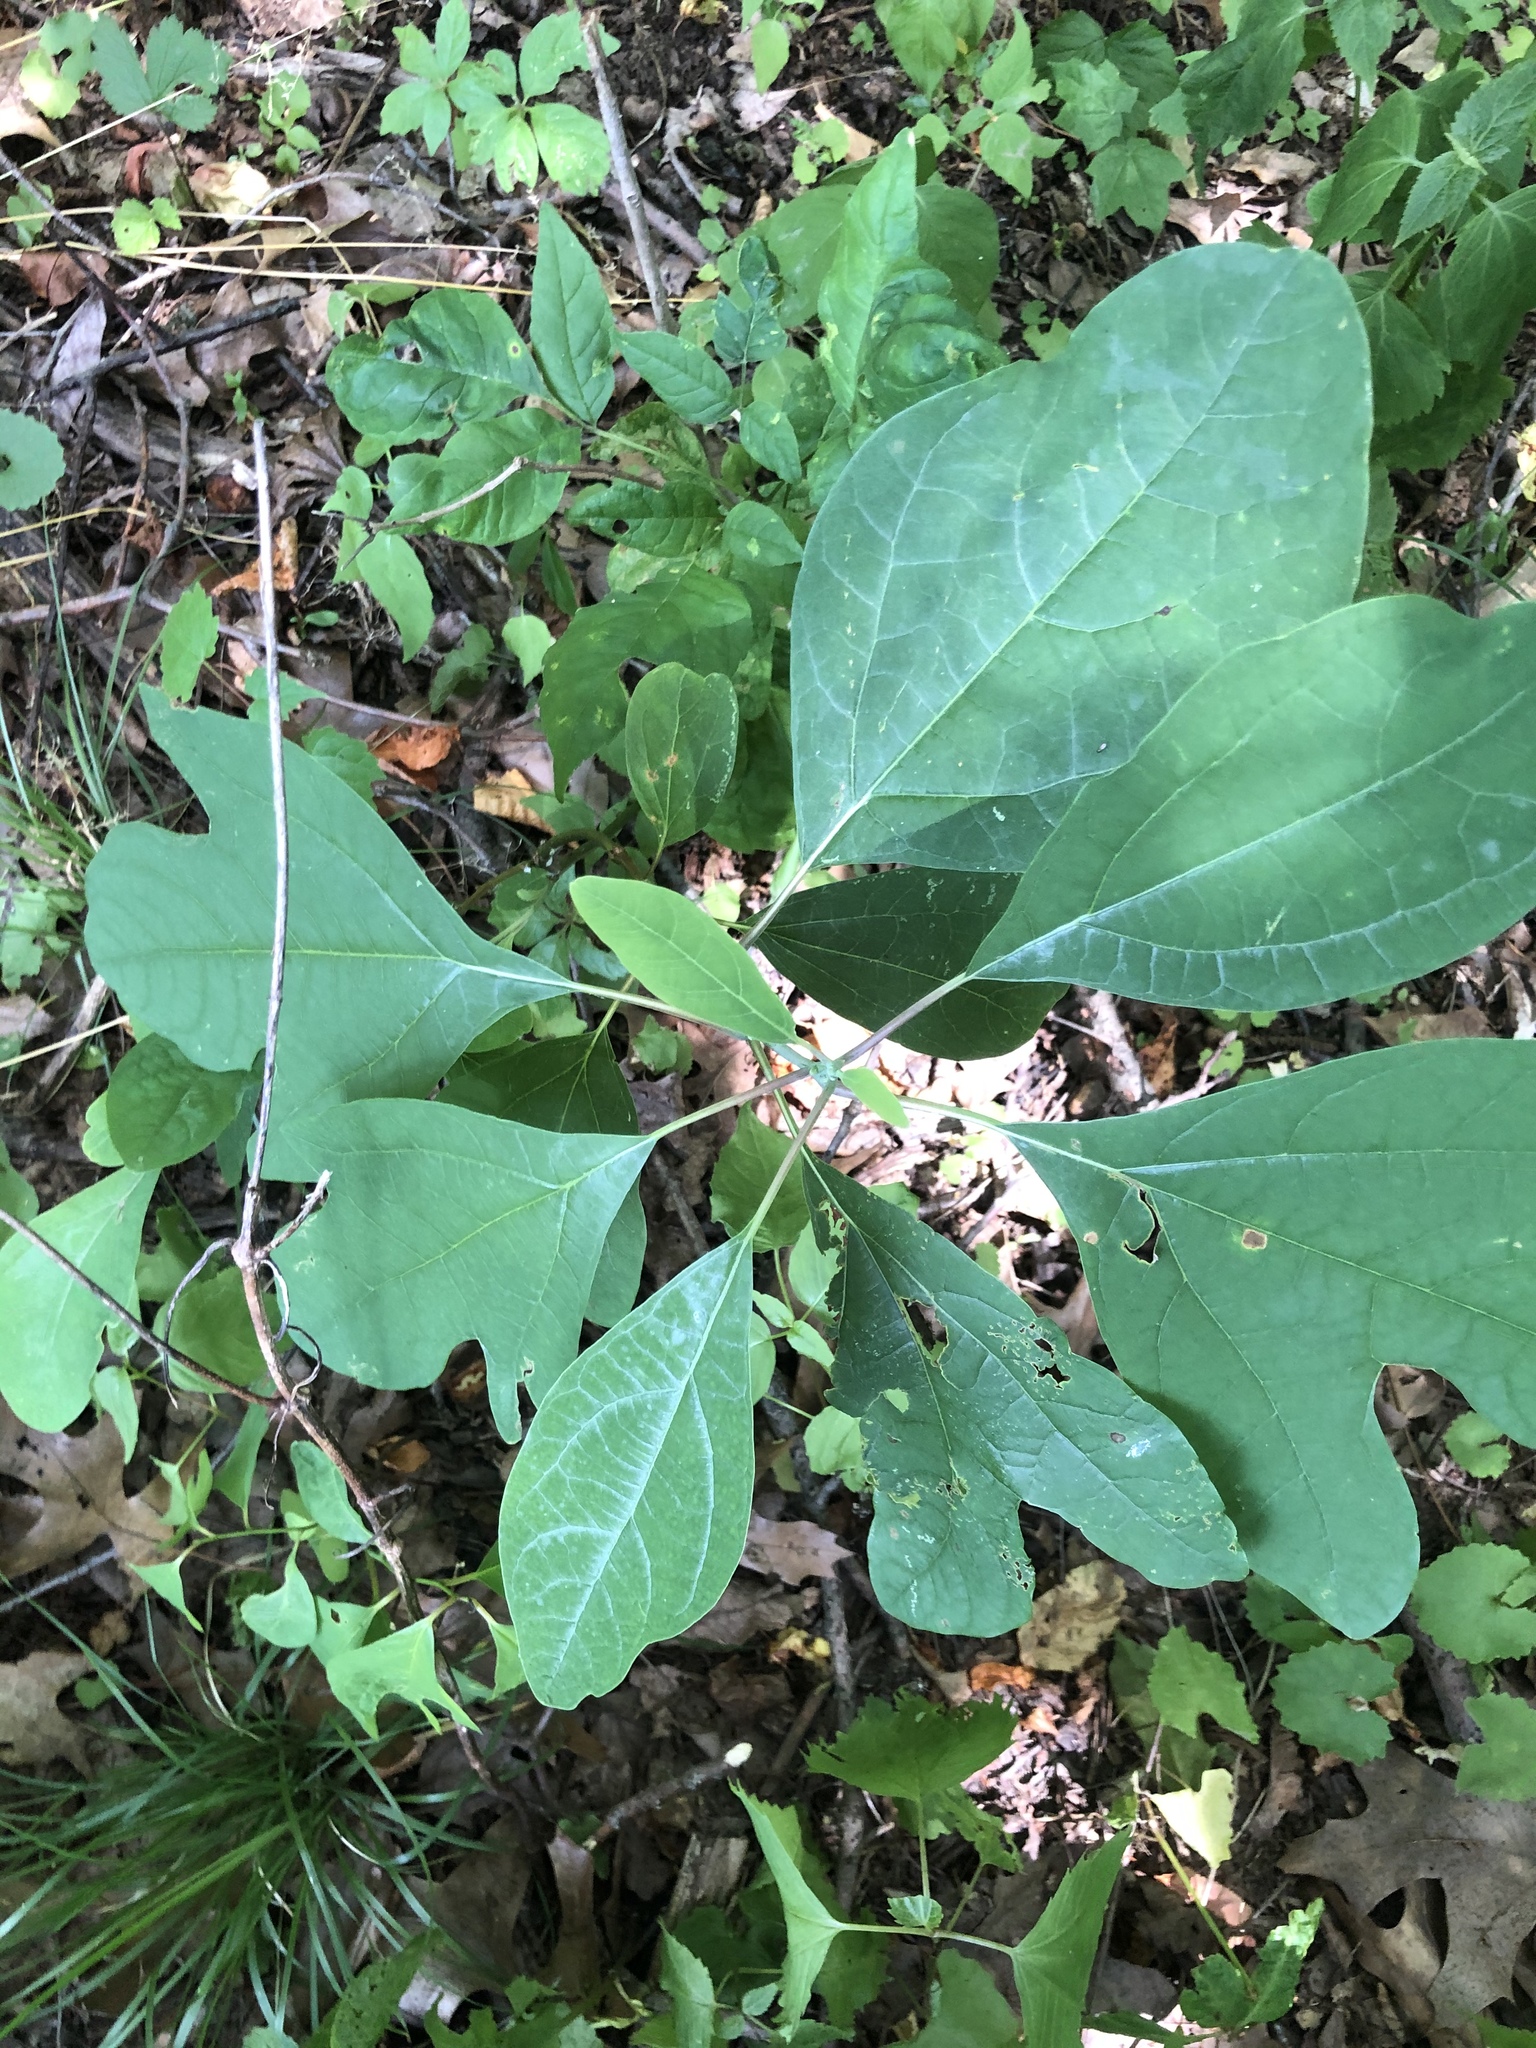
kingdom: Plantae
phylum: Tracheophyta
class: Magnoliopsida
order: Laurales
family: Lauraceae
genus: Sassafras
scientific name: Sassafras albidum
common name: Sassafras
